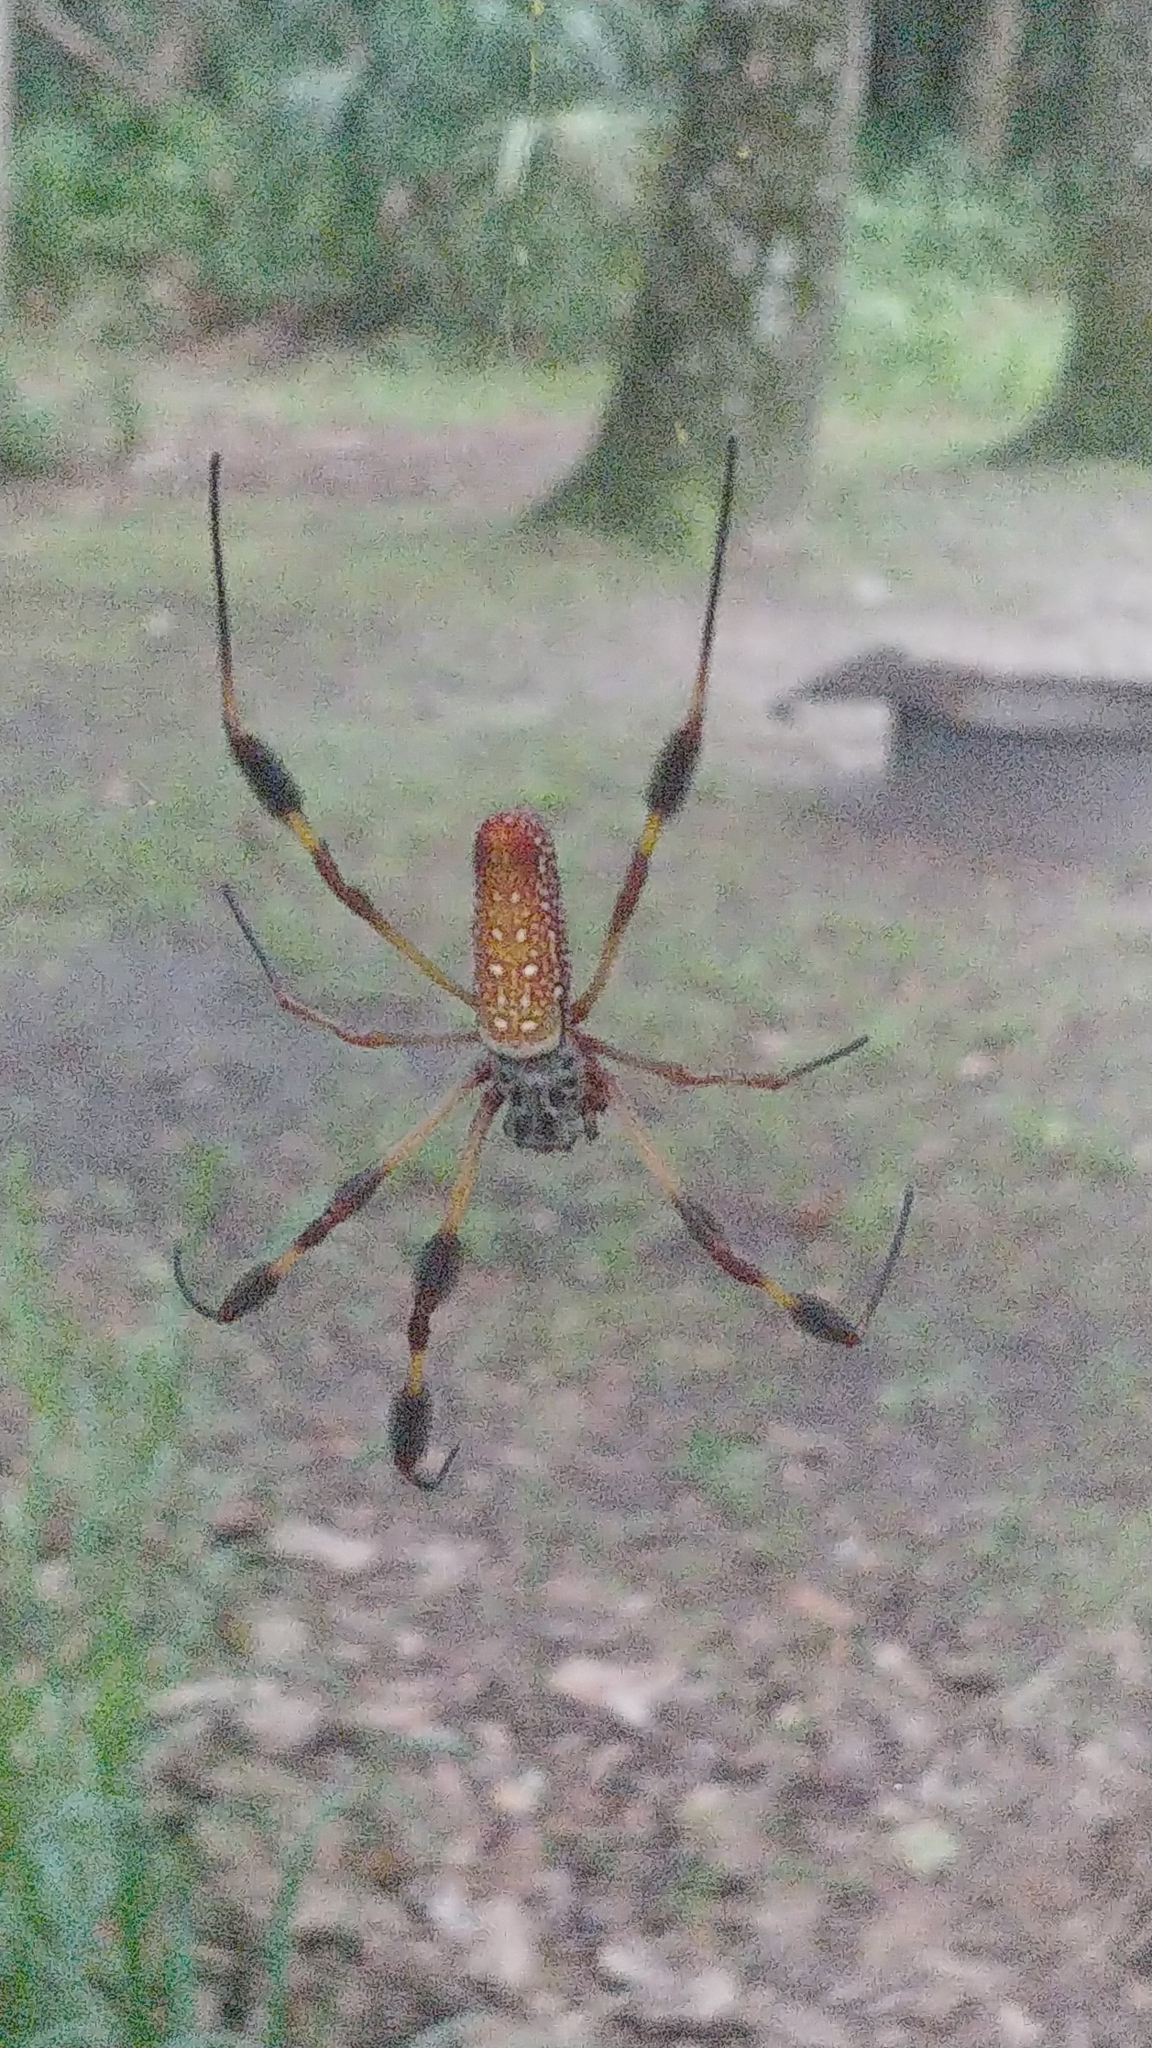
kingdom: Animalia
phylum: Arthropoda
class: Arachnida
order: Araneae
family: Araneidae
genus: Trichonephila
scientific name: Trichonephila clavipes
